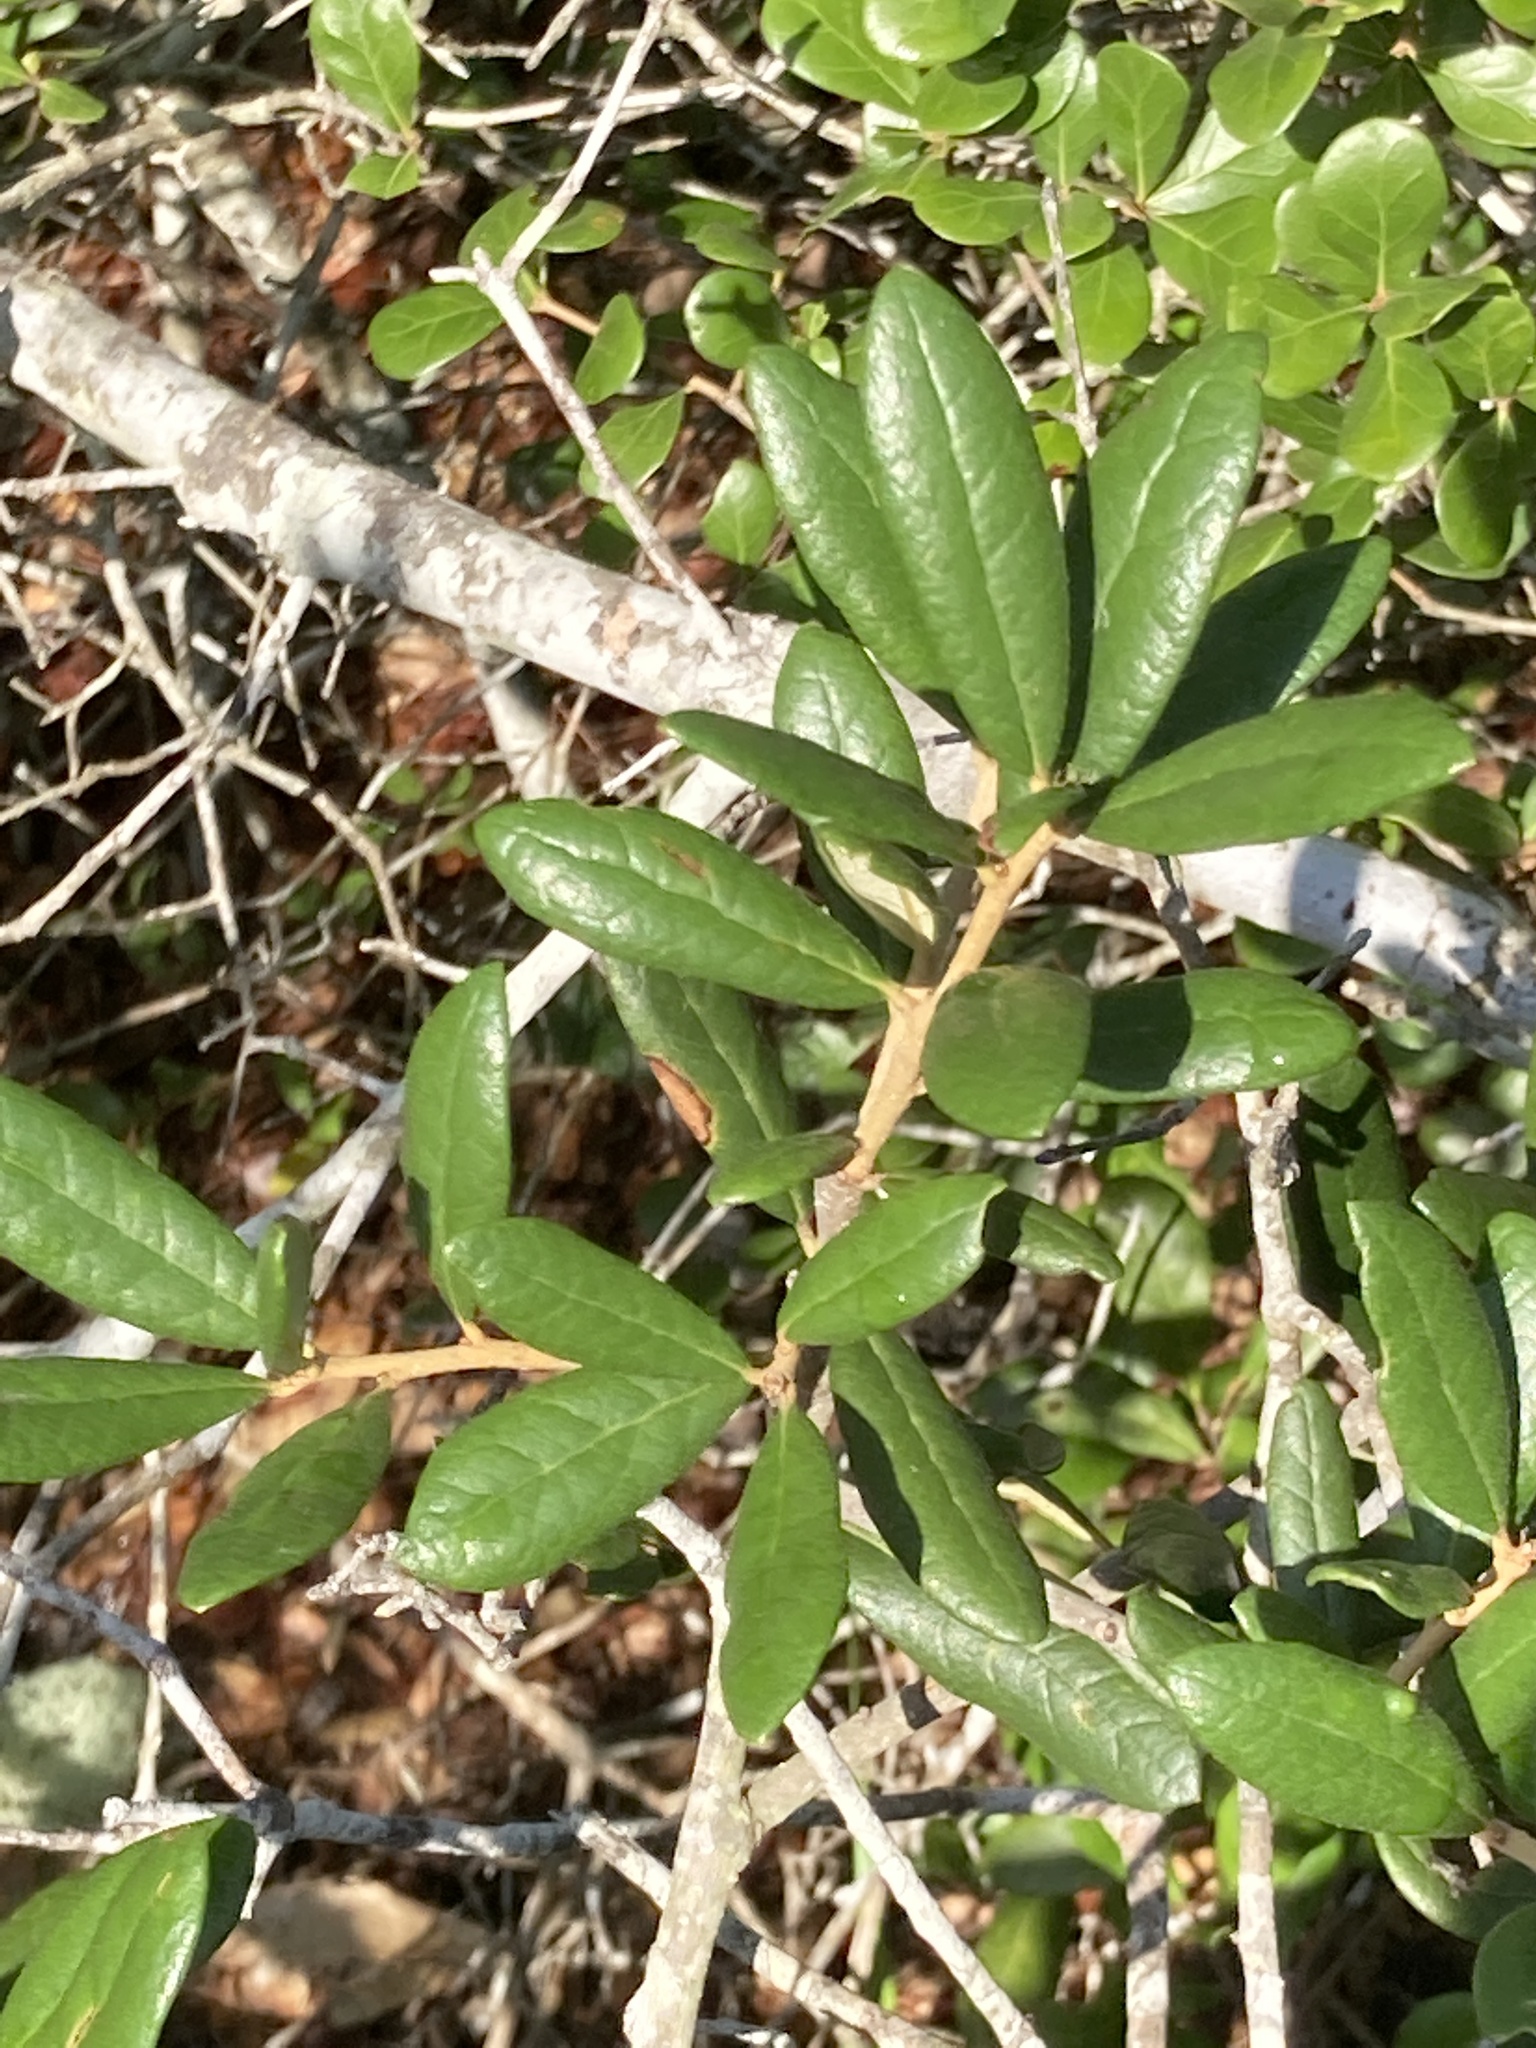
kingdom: Plantae
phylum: Tracheophyta
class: Magnoliopsida
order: Fagales
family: Fagaceae
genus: Quercus
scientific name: Quercus geminata
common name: Sand live oak
